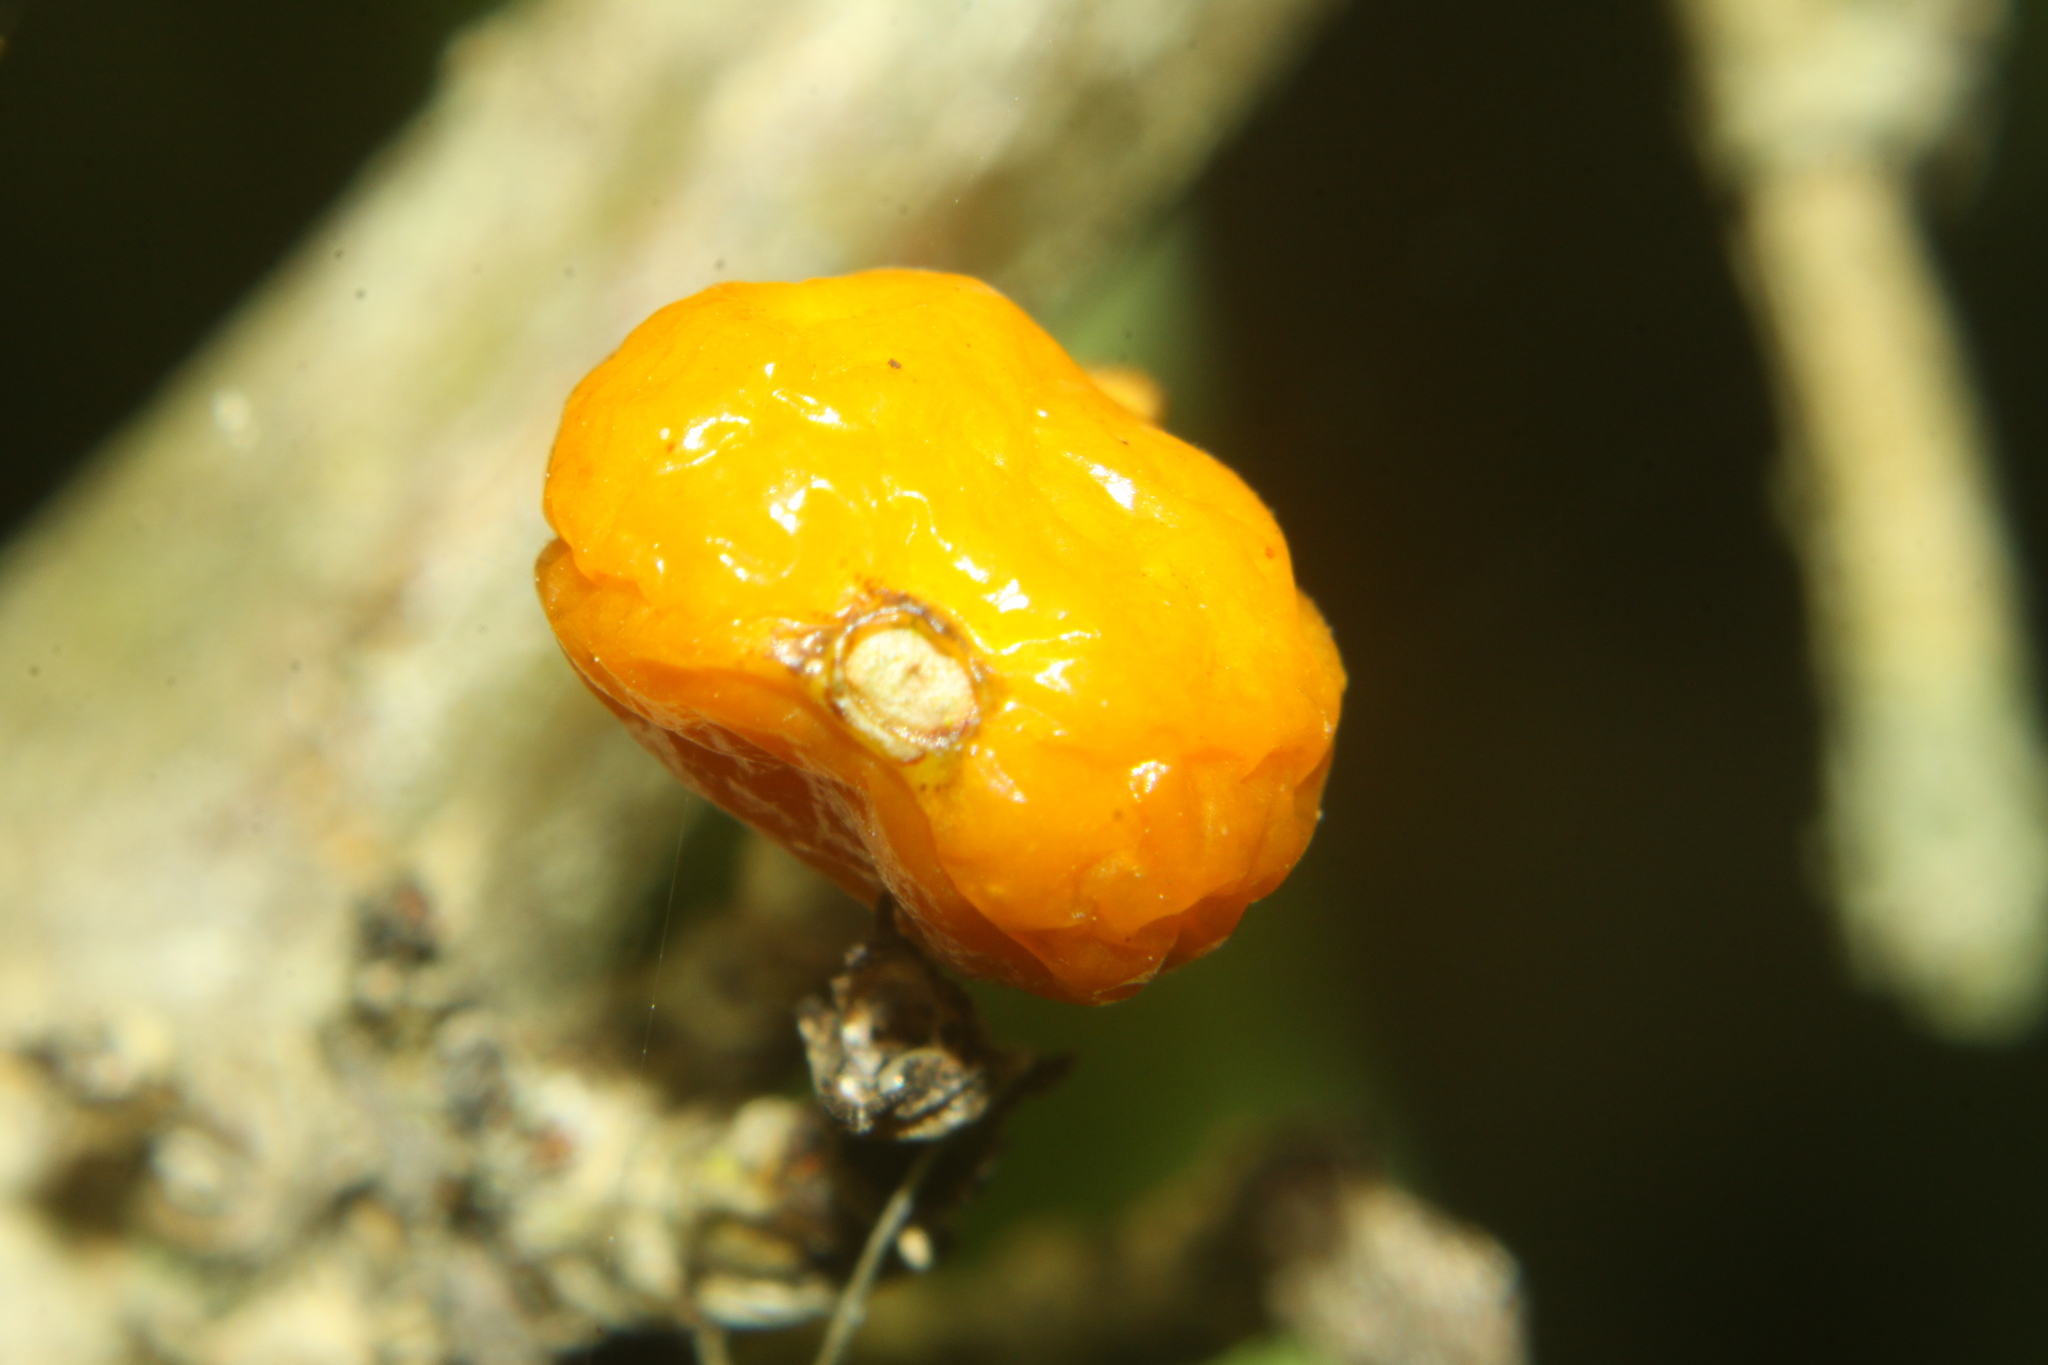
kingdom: Plantae
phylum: Tracheophyta
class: Magnoliopsida
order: Gentianales
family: Rubiaceae
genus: Coprosma
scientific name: Coprosma repens
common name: Tree bedstraw
